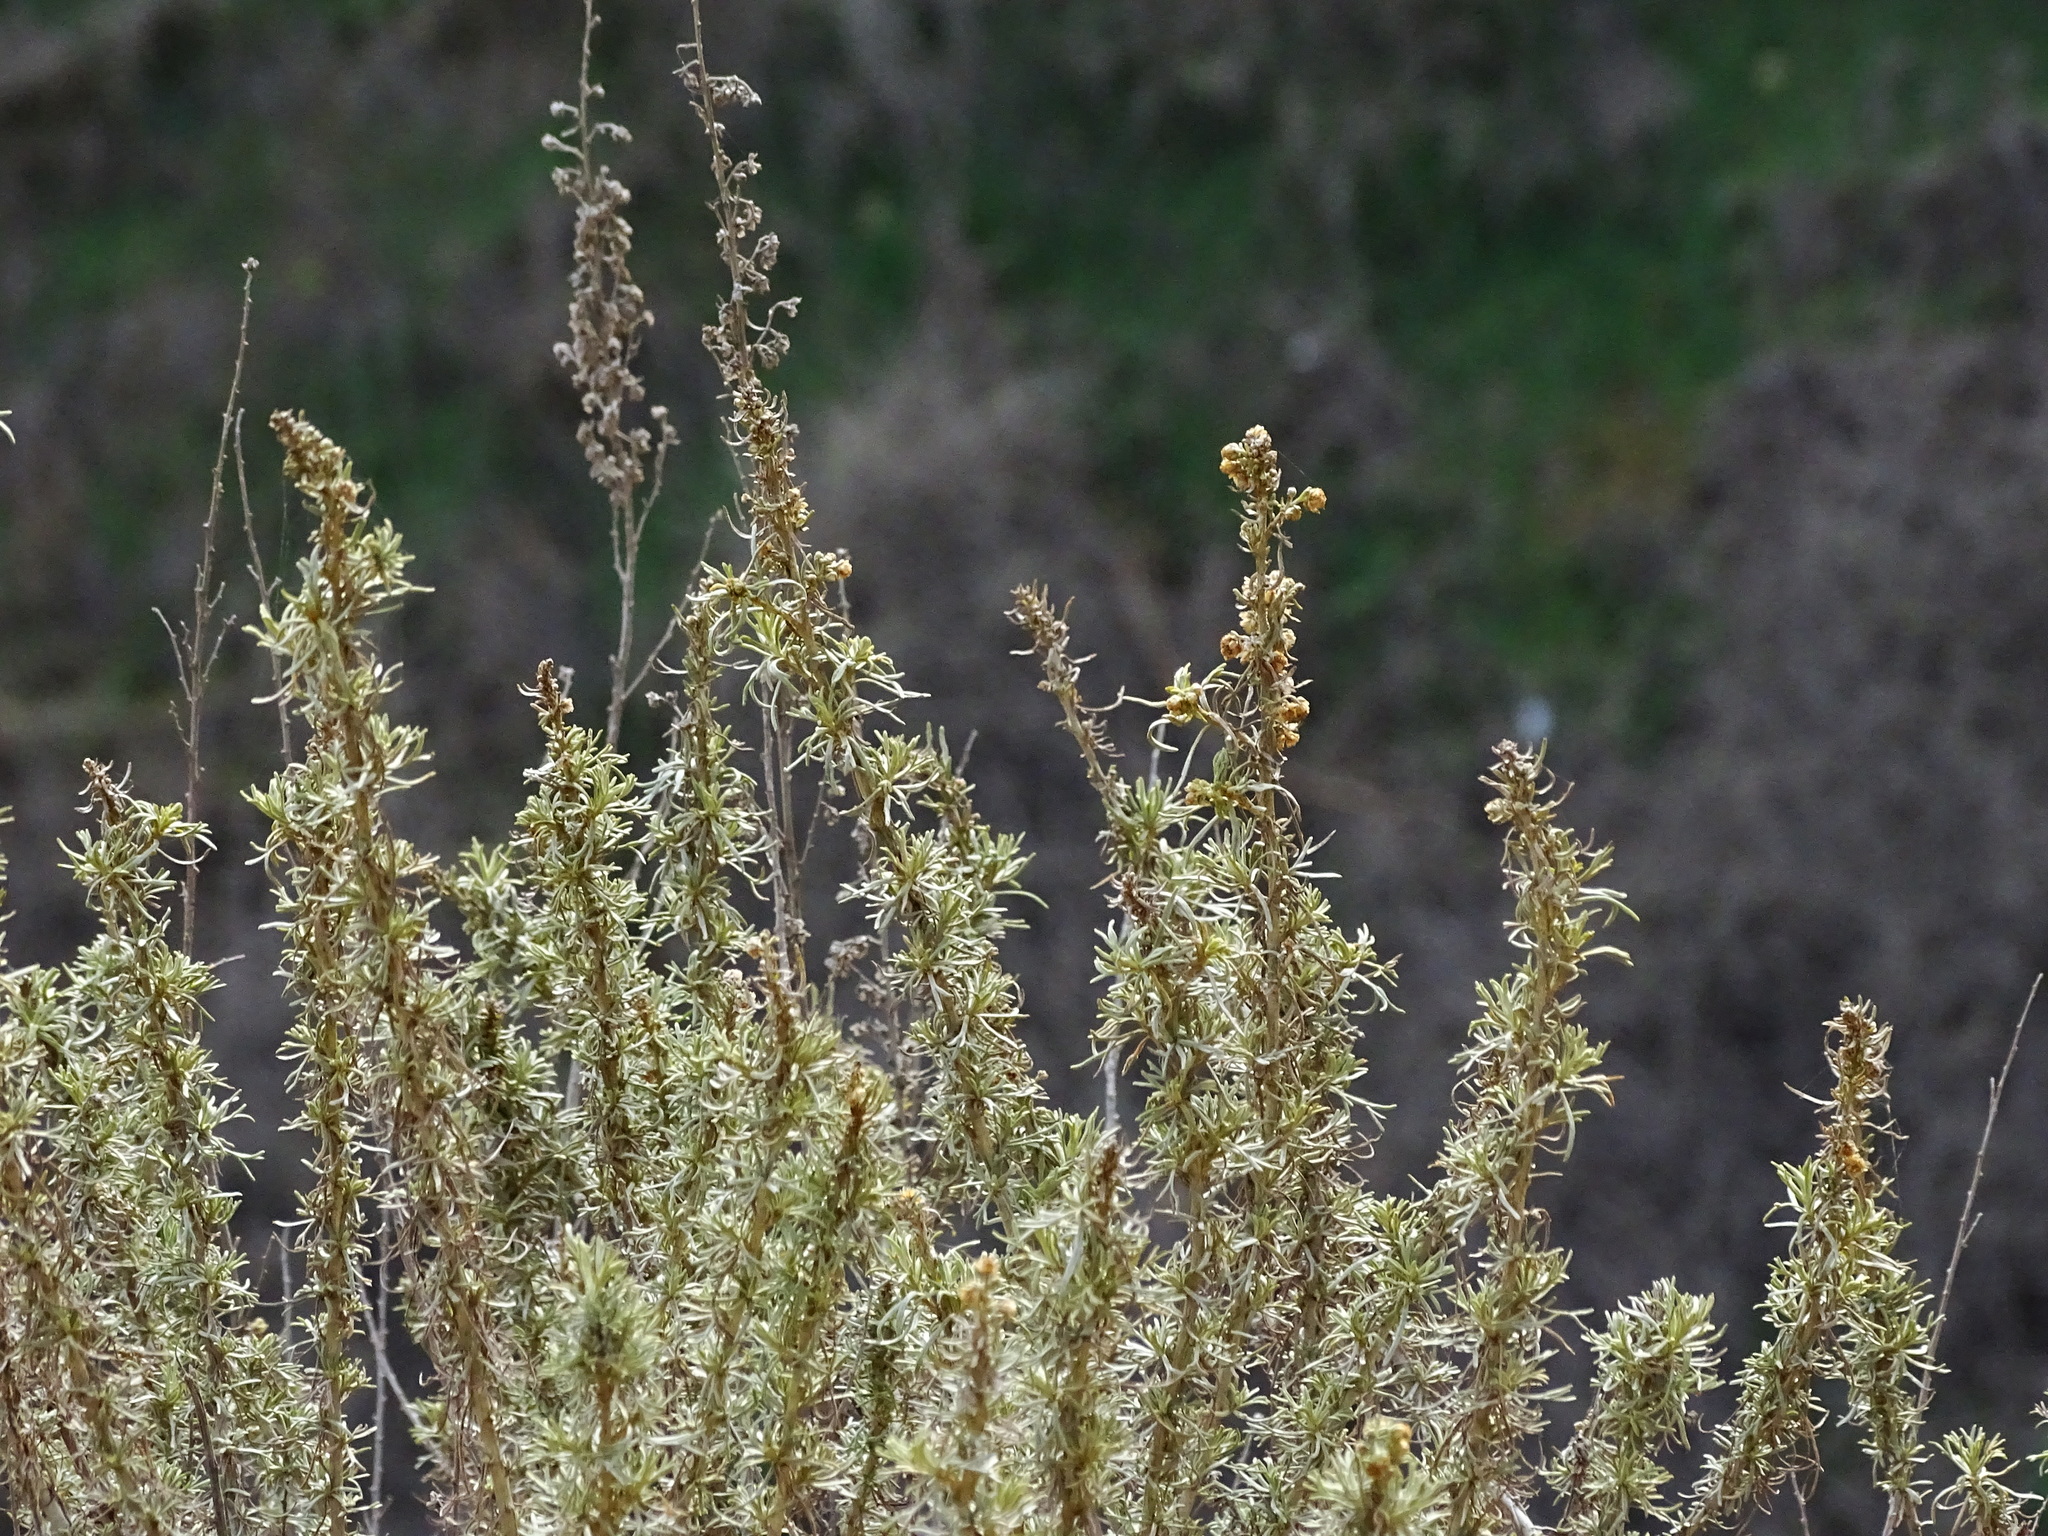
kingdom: Plantae
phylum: Tracheophyta
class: Magnoliopsida
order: Asterales
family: Asteraceae
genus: Artemisia
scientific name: Artemisia californica
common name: California sagebrush
